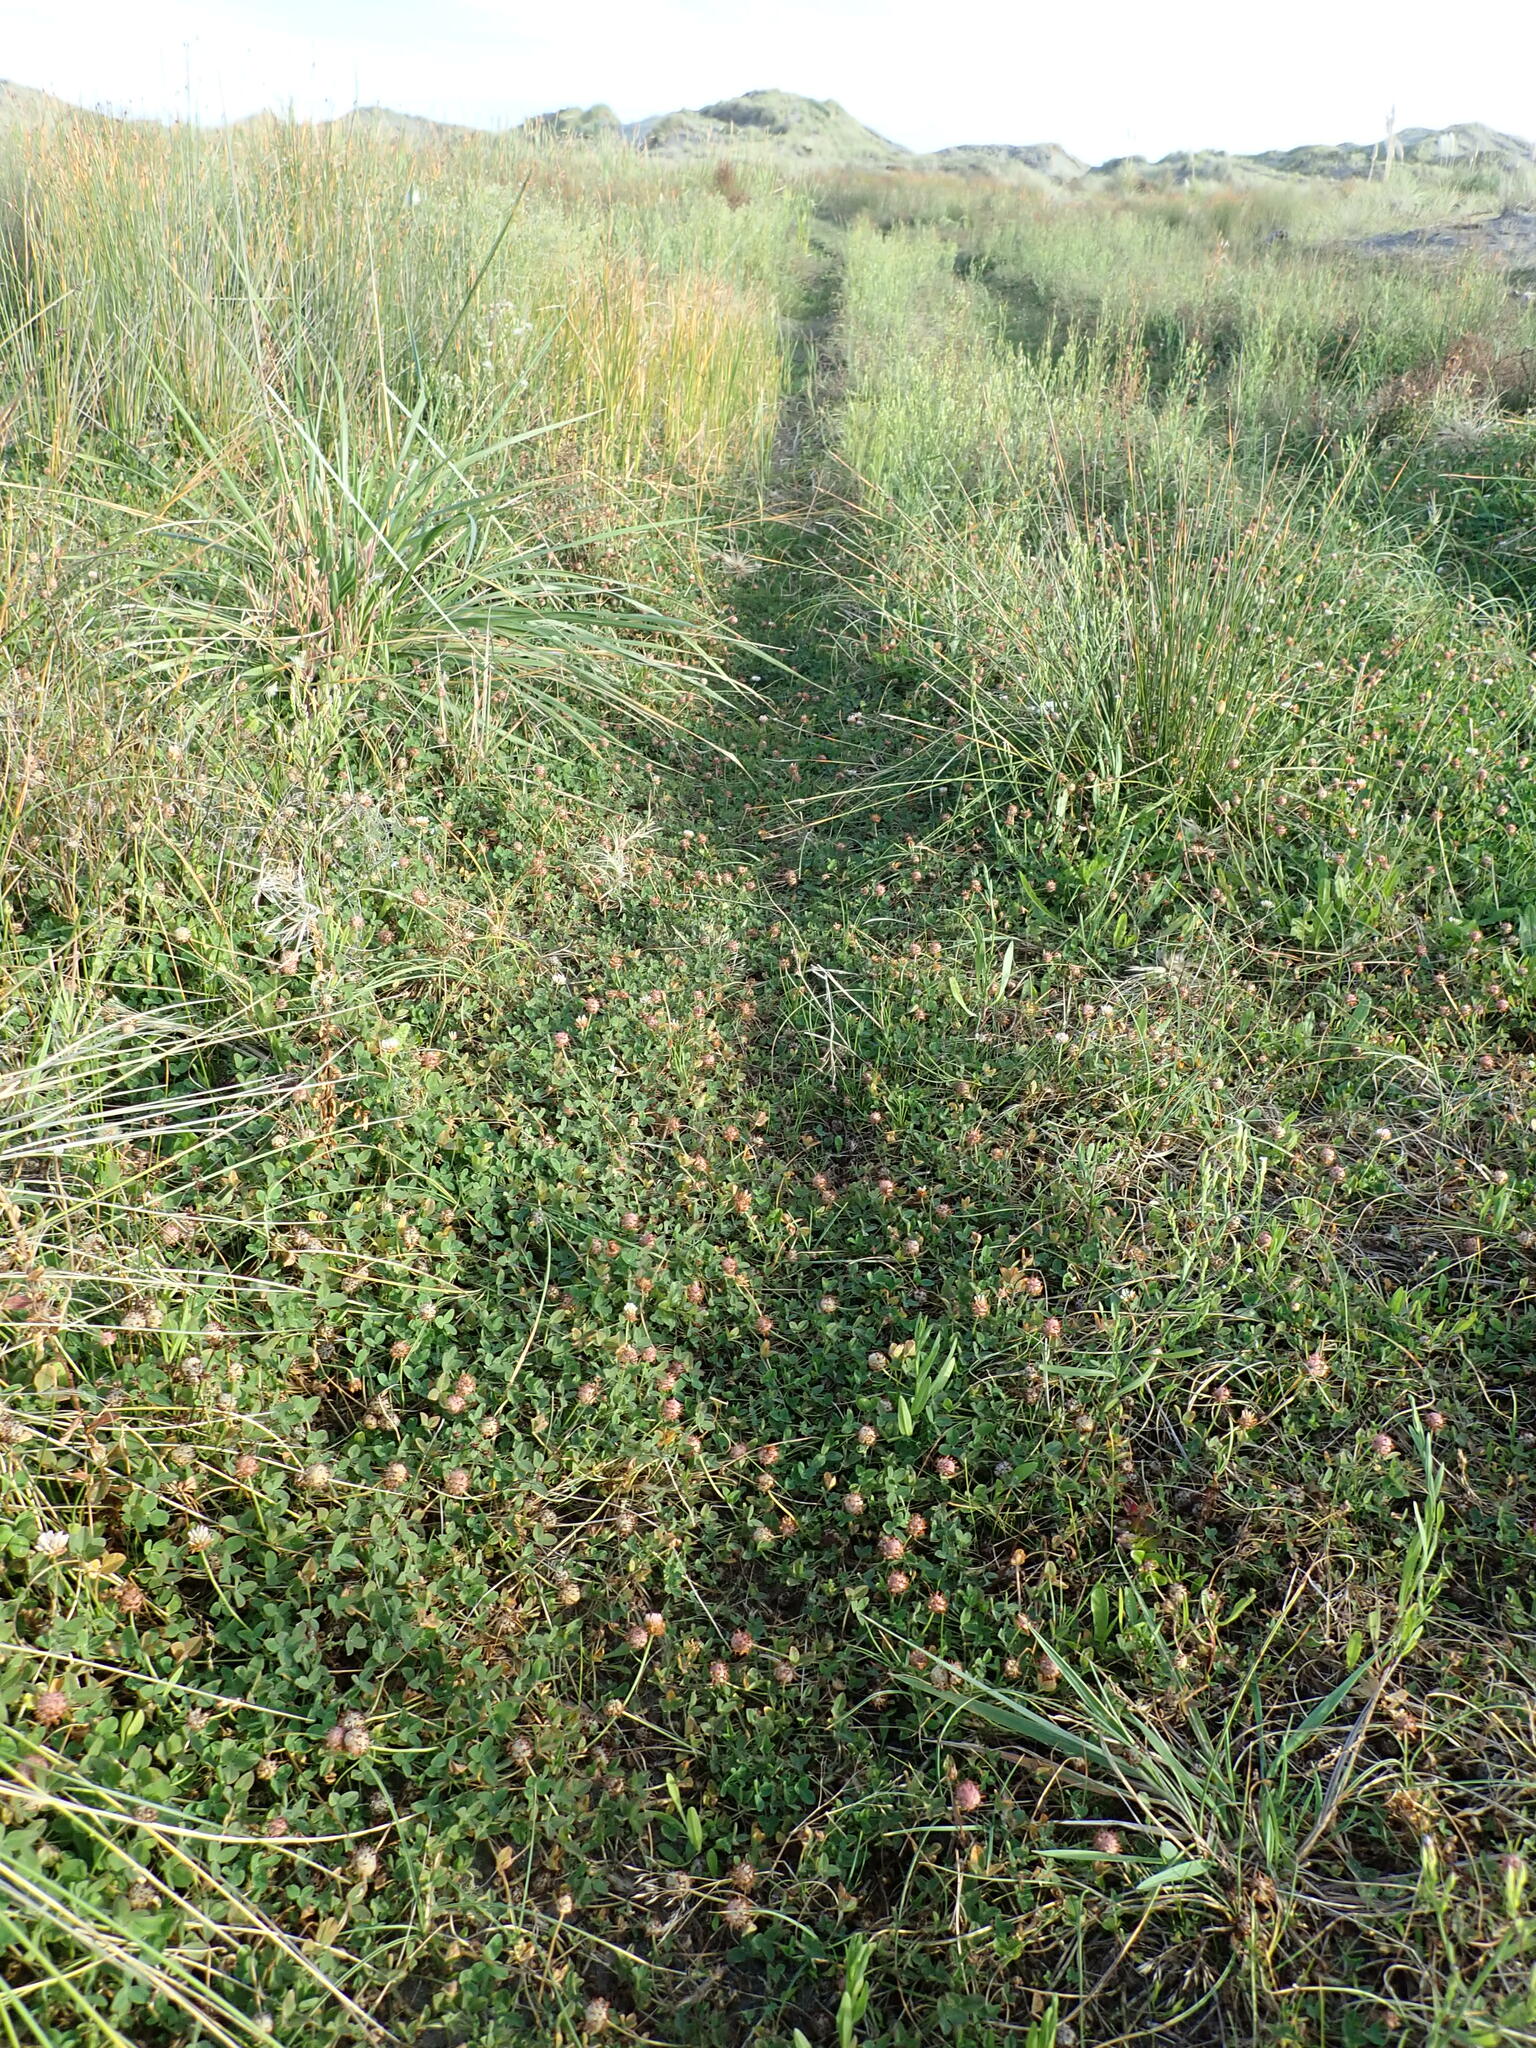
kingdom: Plantae
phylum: Tracheophyta
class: Magnoliopsida
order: Fabales
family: Fabaceae
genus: Trifolium
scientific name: Trifolium fragiferum
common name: Strawberry clover
